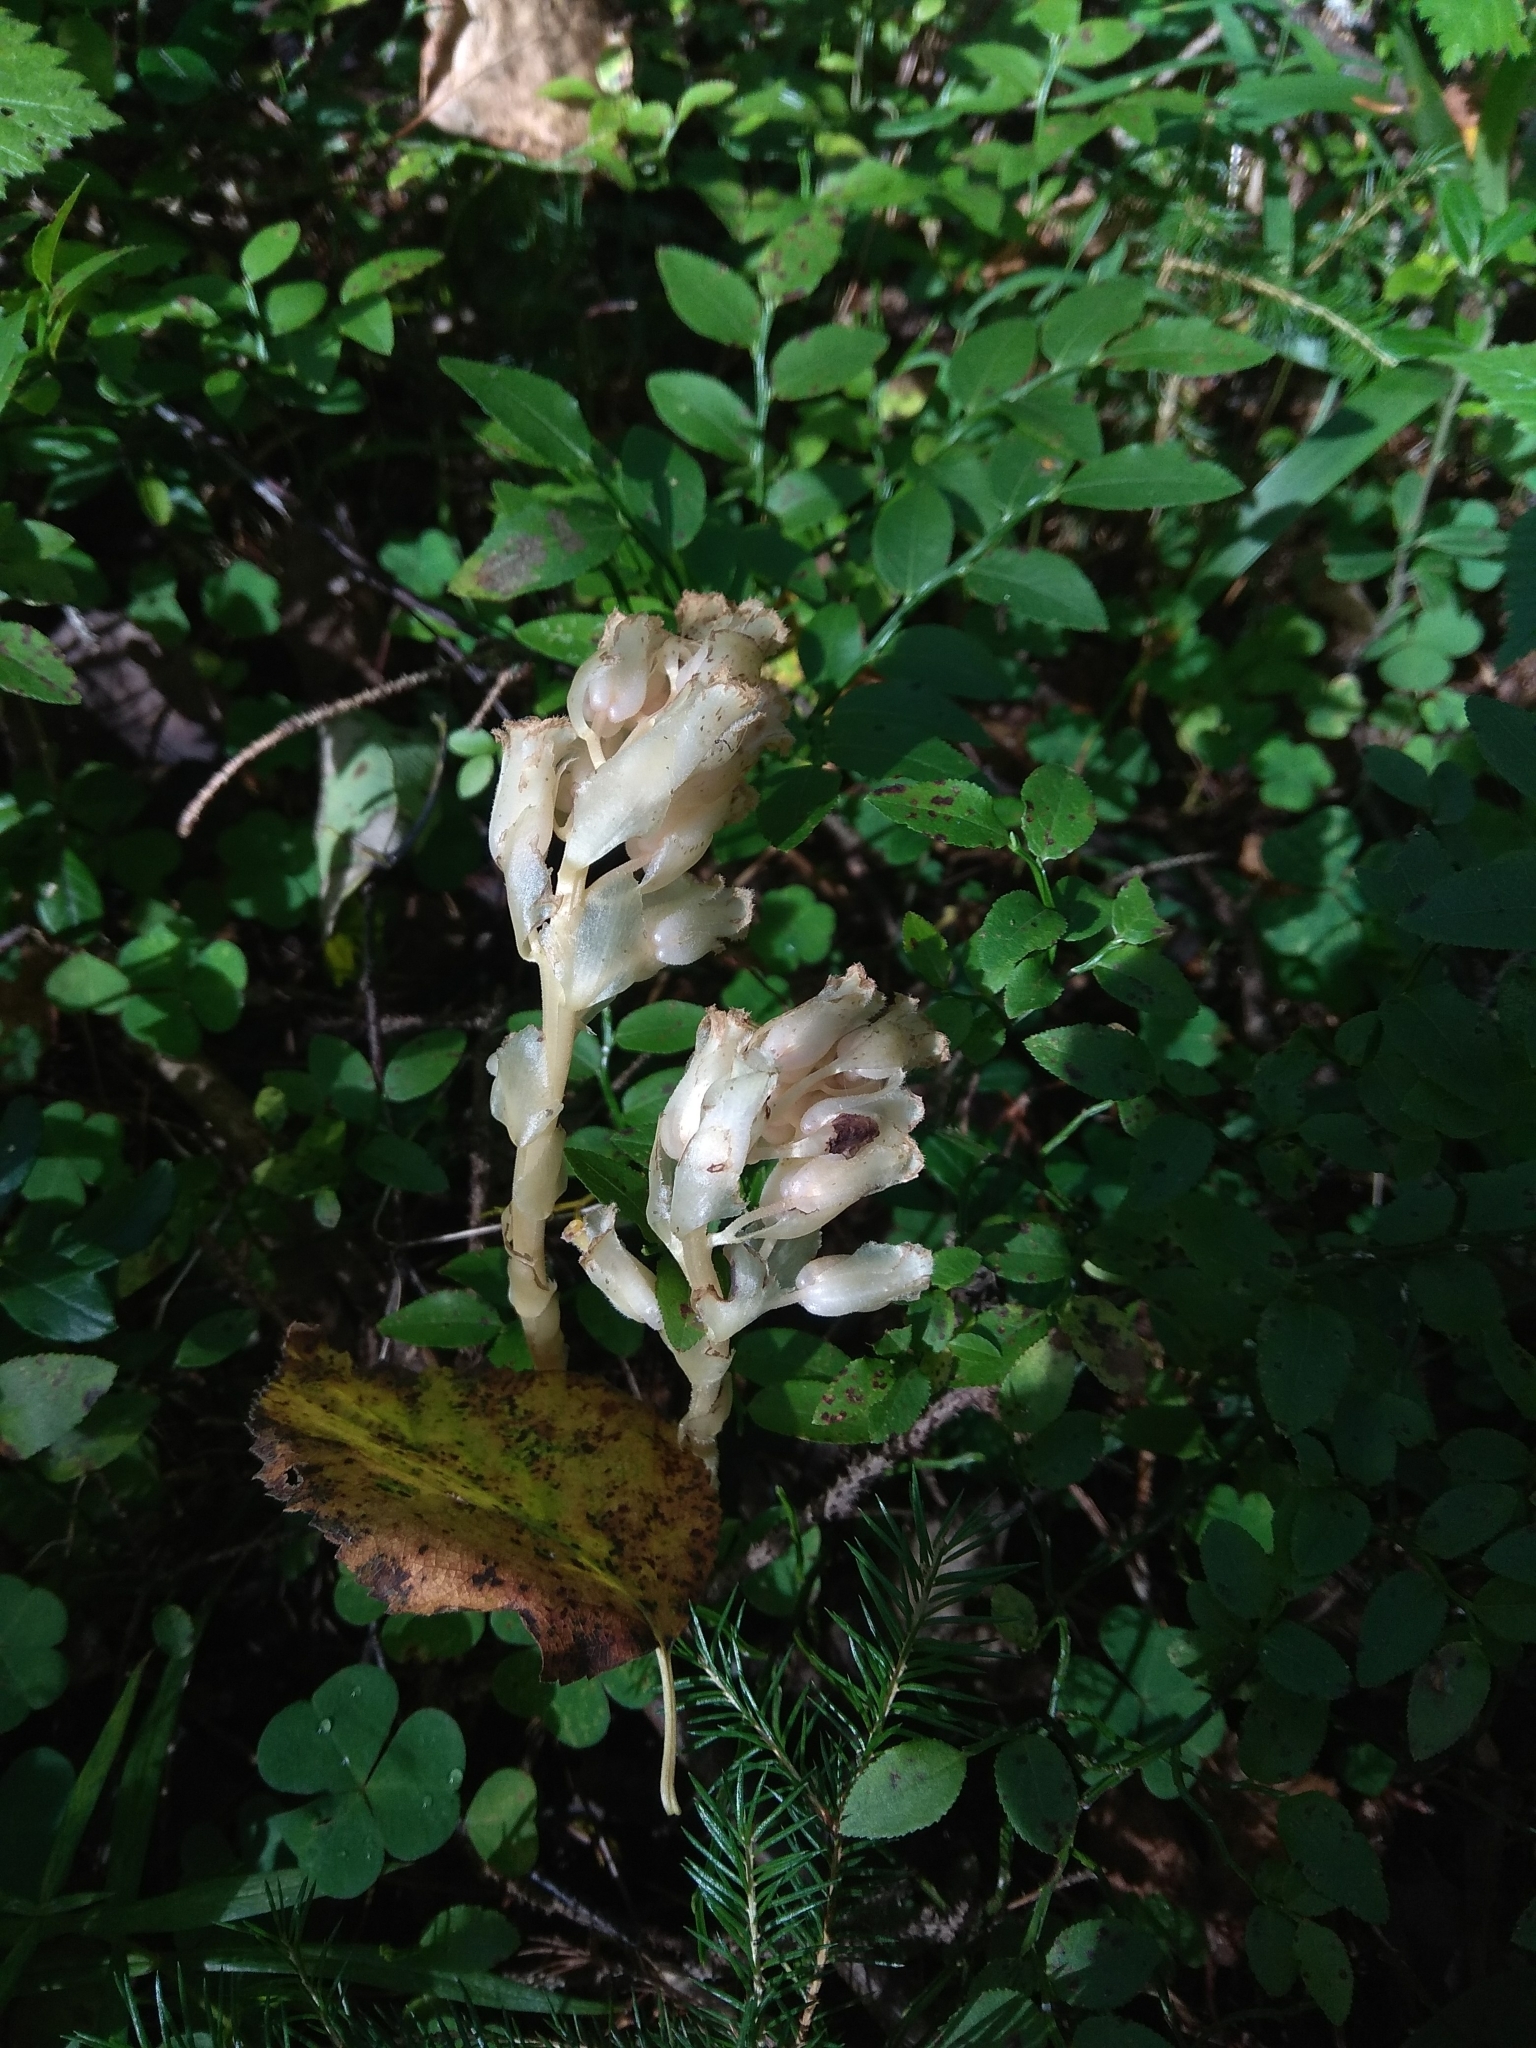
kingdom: Plantae
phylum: Tracheophyta
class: Magnoliopsida
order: Ericales
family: Ericaceae
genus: Hypopitys
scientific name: Hypopitys monotropa
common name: Yellow bird's-nest
